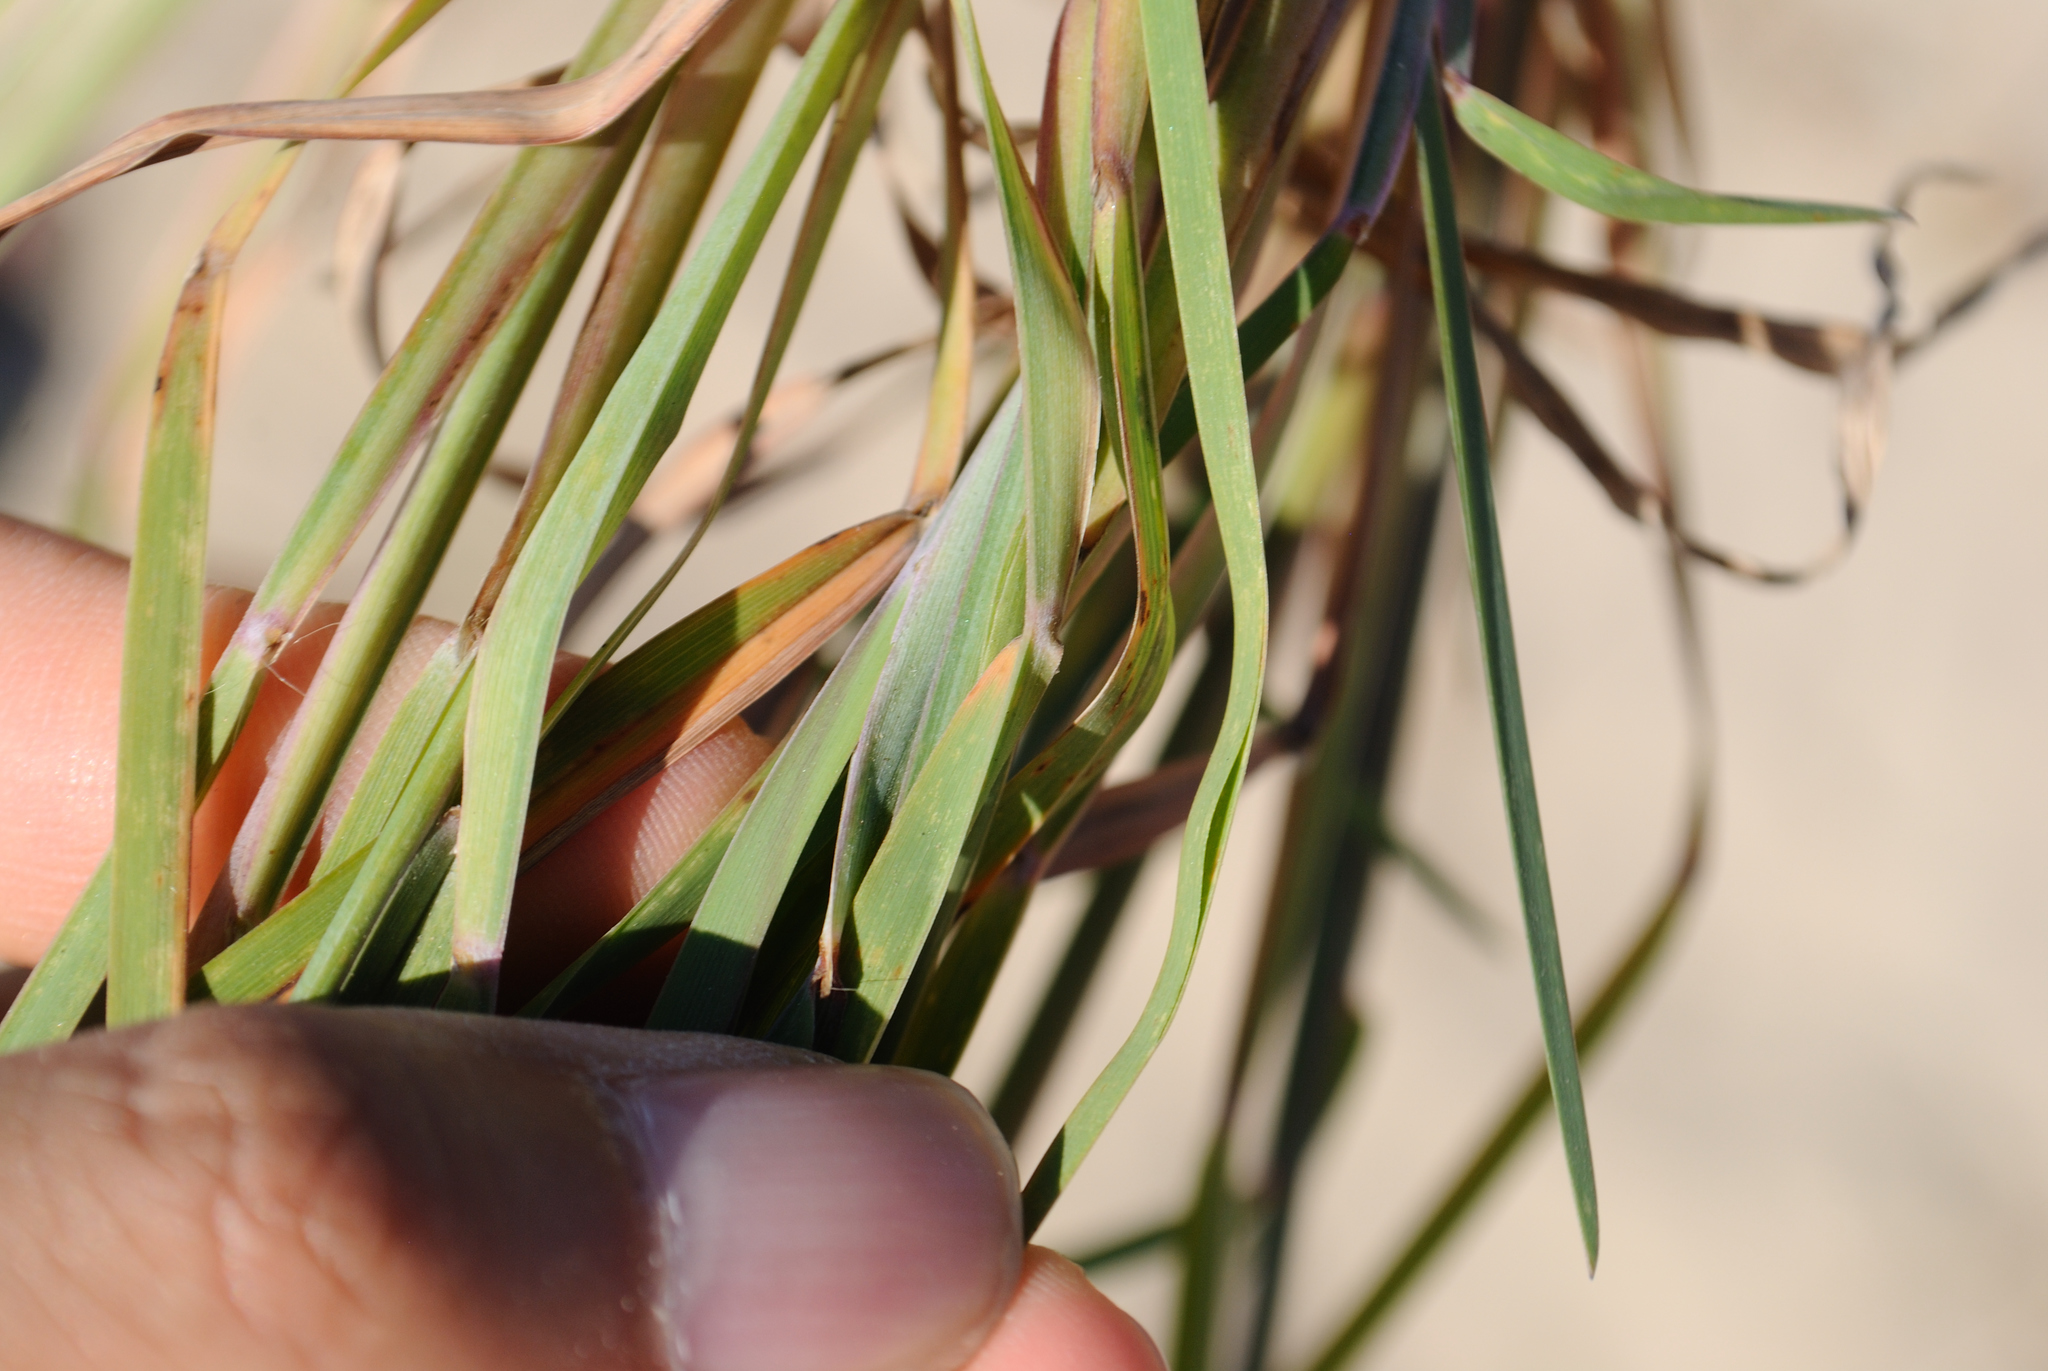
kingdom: Plantae
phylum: Tracheophyta
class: Liliopsida
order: Poales
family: Poaceae
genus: Schizachyrium
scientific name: Schizachyrium scoparium
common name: Little bluestem
